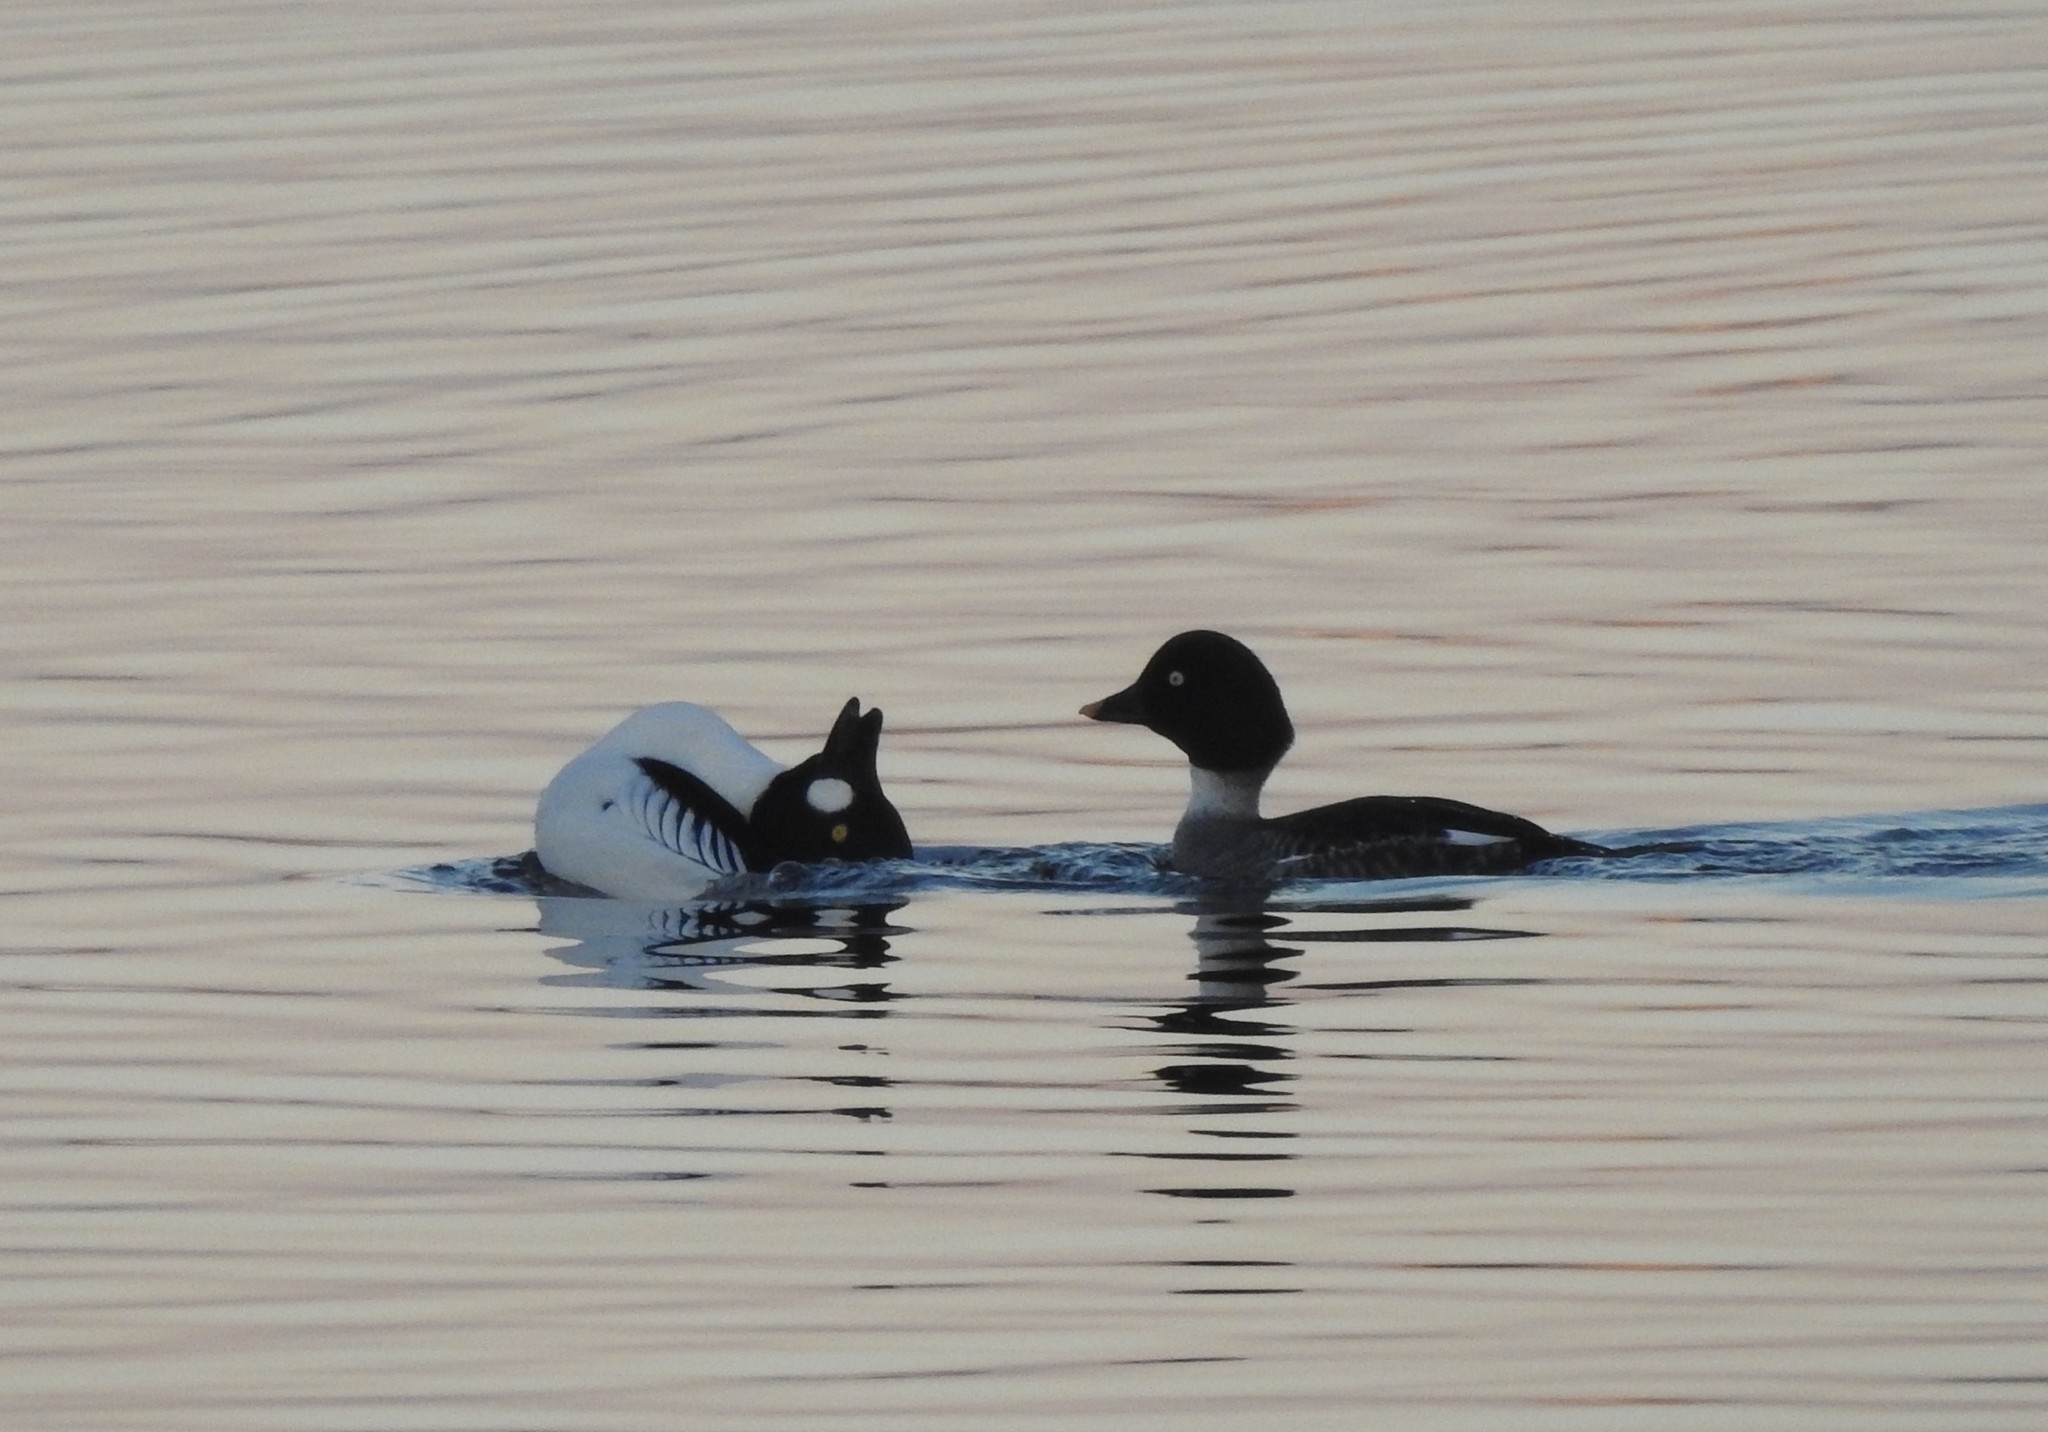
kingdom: Animalia
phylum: Chordata
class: Aves
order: Anseriformes
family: Anatidae
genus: Bucephala
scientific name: Bucephala clangula
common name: Common goldeneye
